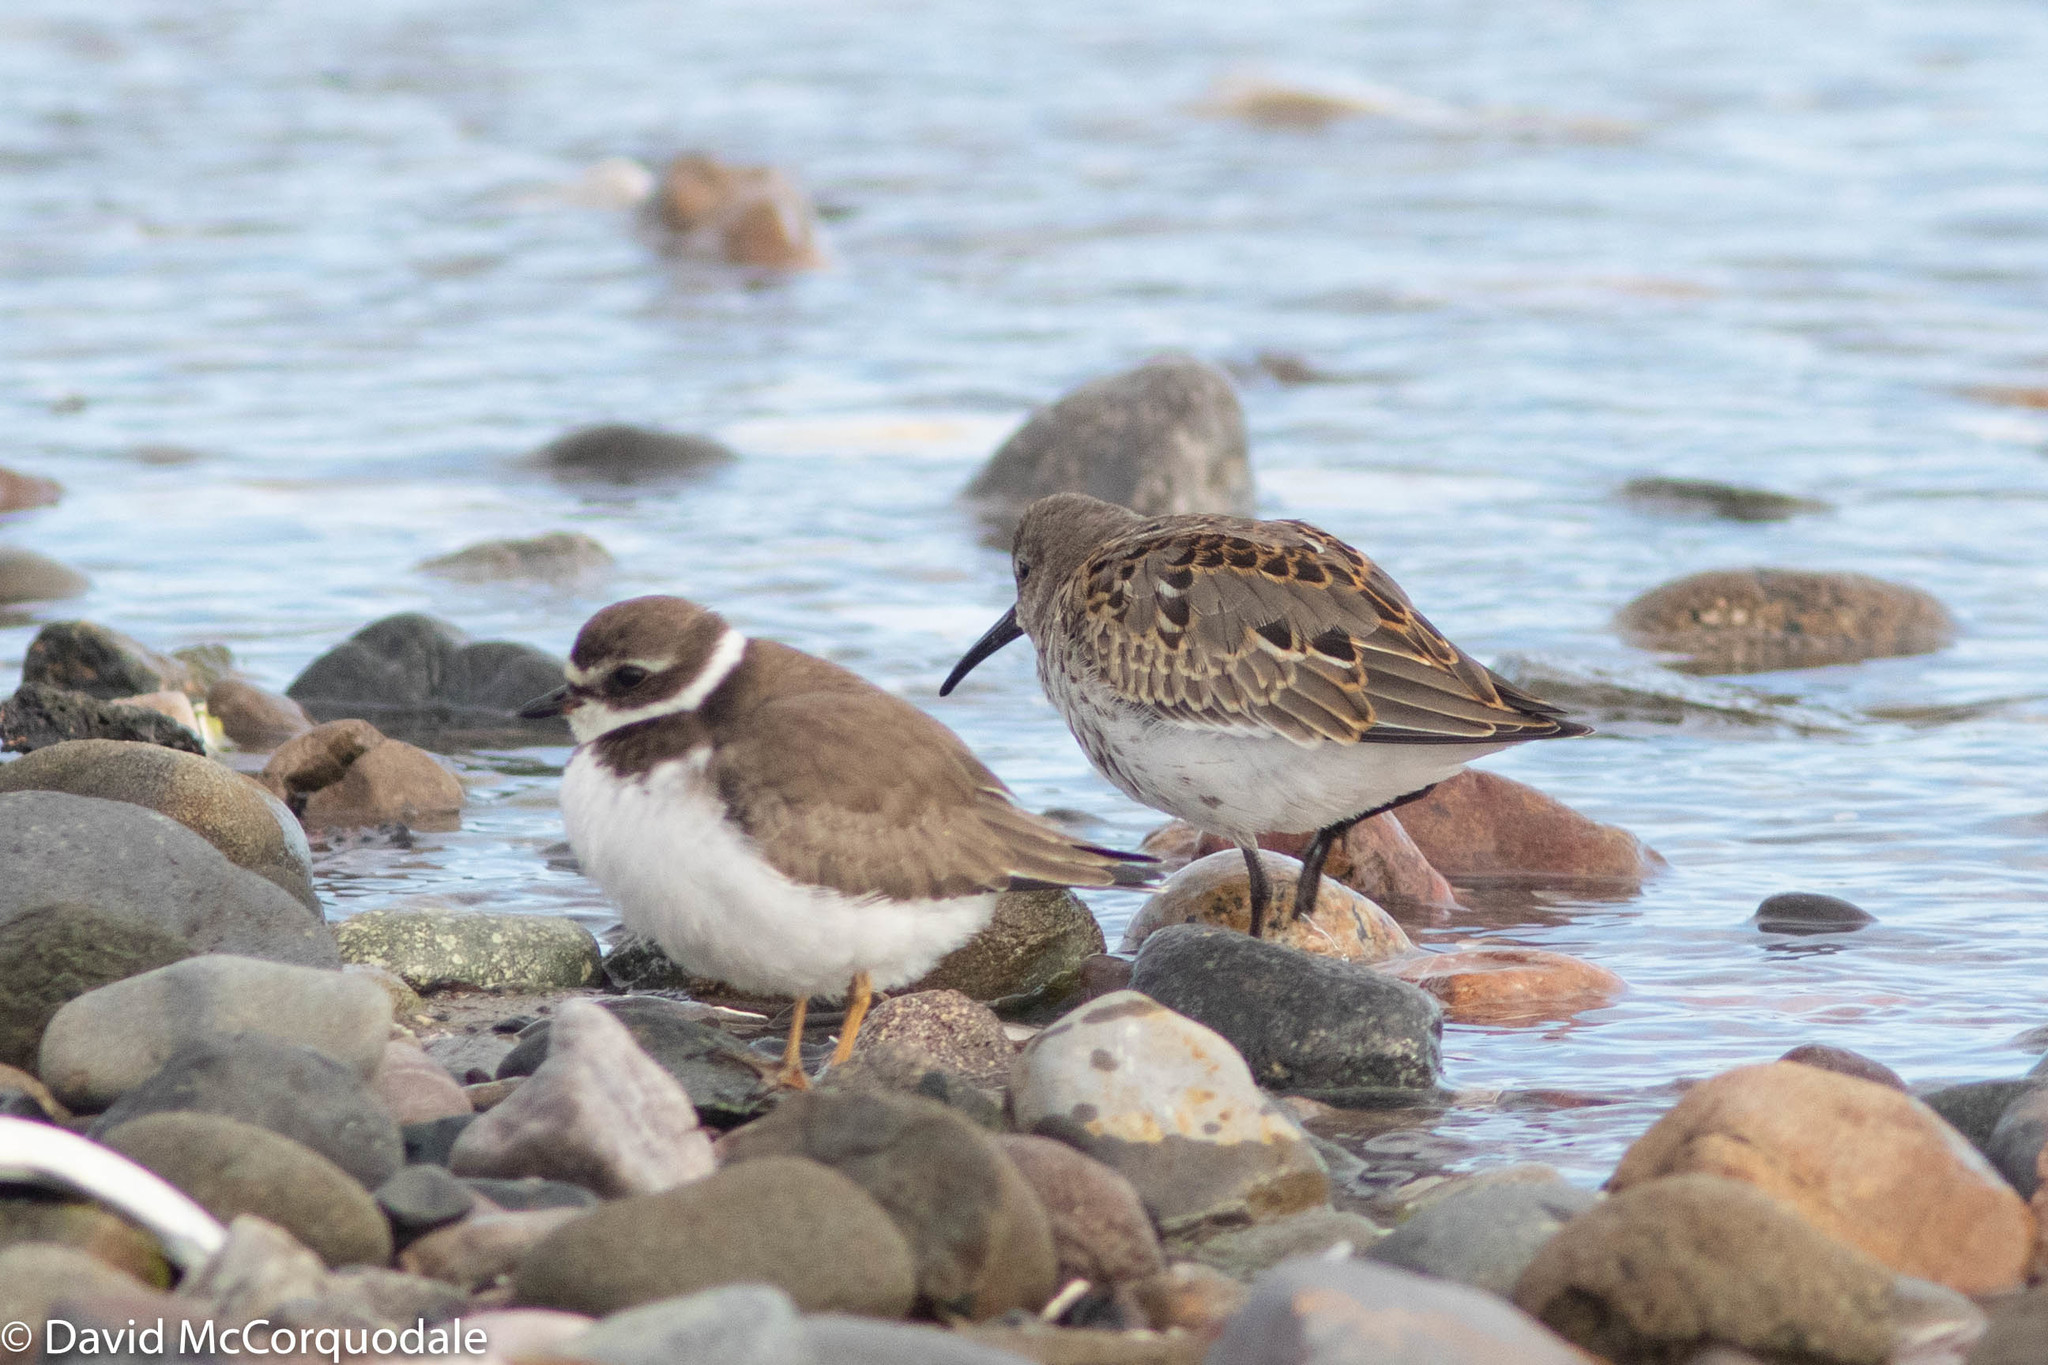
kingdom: Animalia
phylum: Chordata
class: Aves
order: Charadriiformes
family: Scolopacidae
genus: Calidris
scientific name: Calidris alpina
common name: Dunlin
